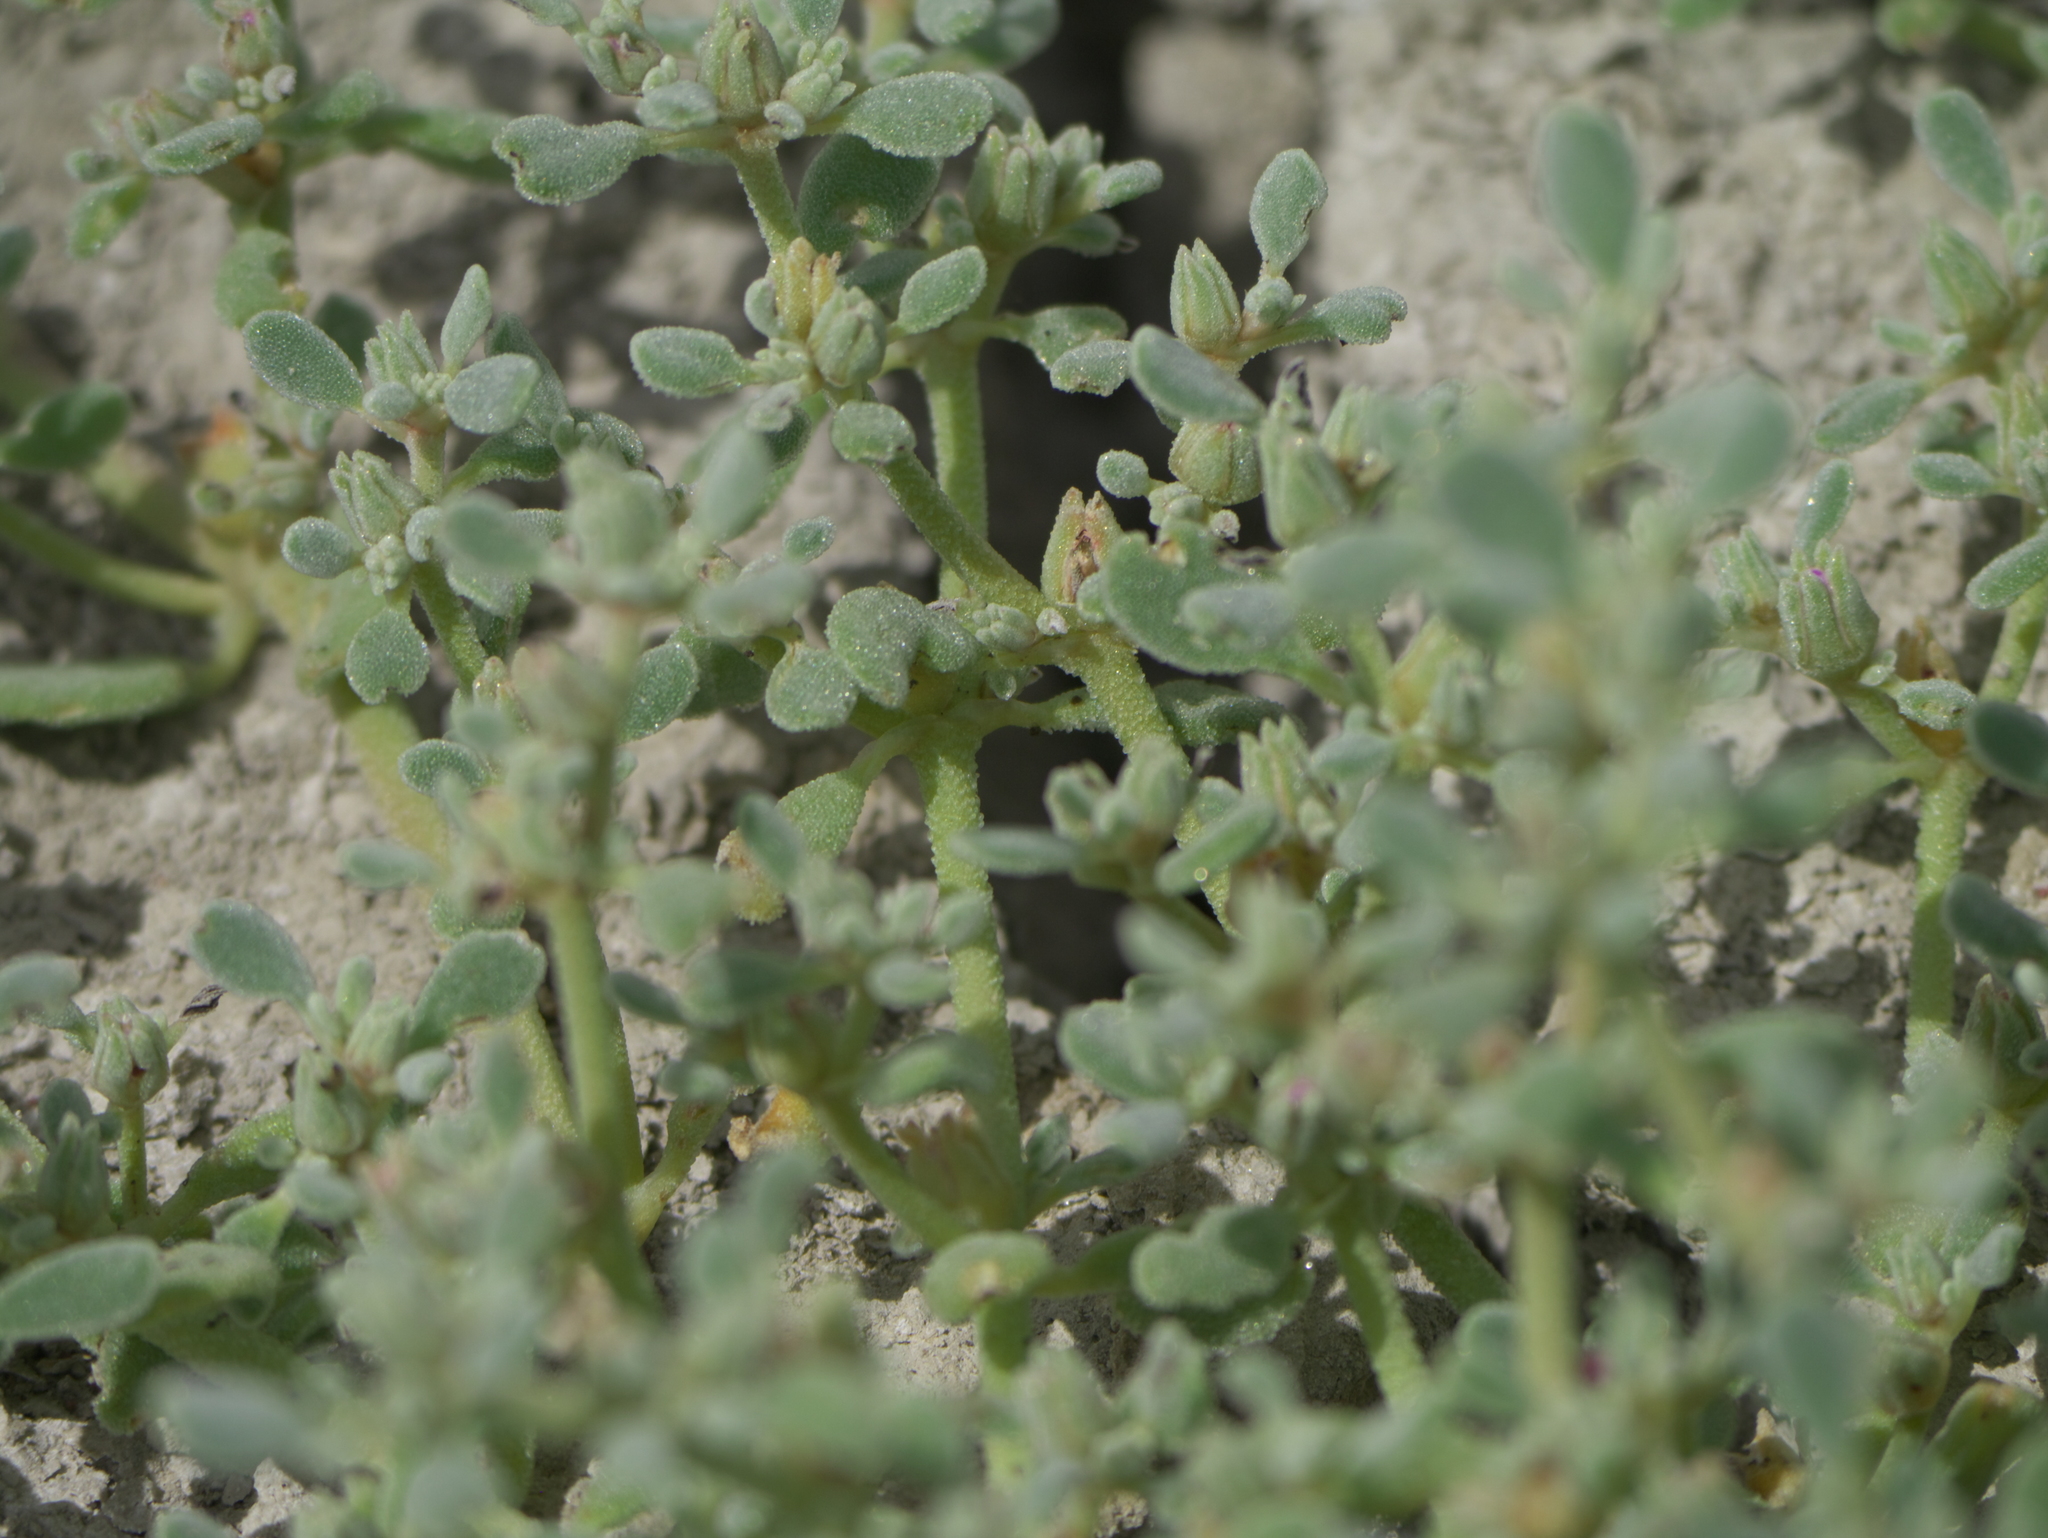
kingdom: Plantae
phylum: Tracheophyta
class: Magnoliopsida
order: Caryophyllales
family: Aizoaceae
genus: Sesuvium
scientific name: Sesuvium revolutifolium
